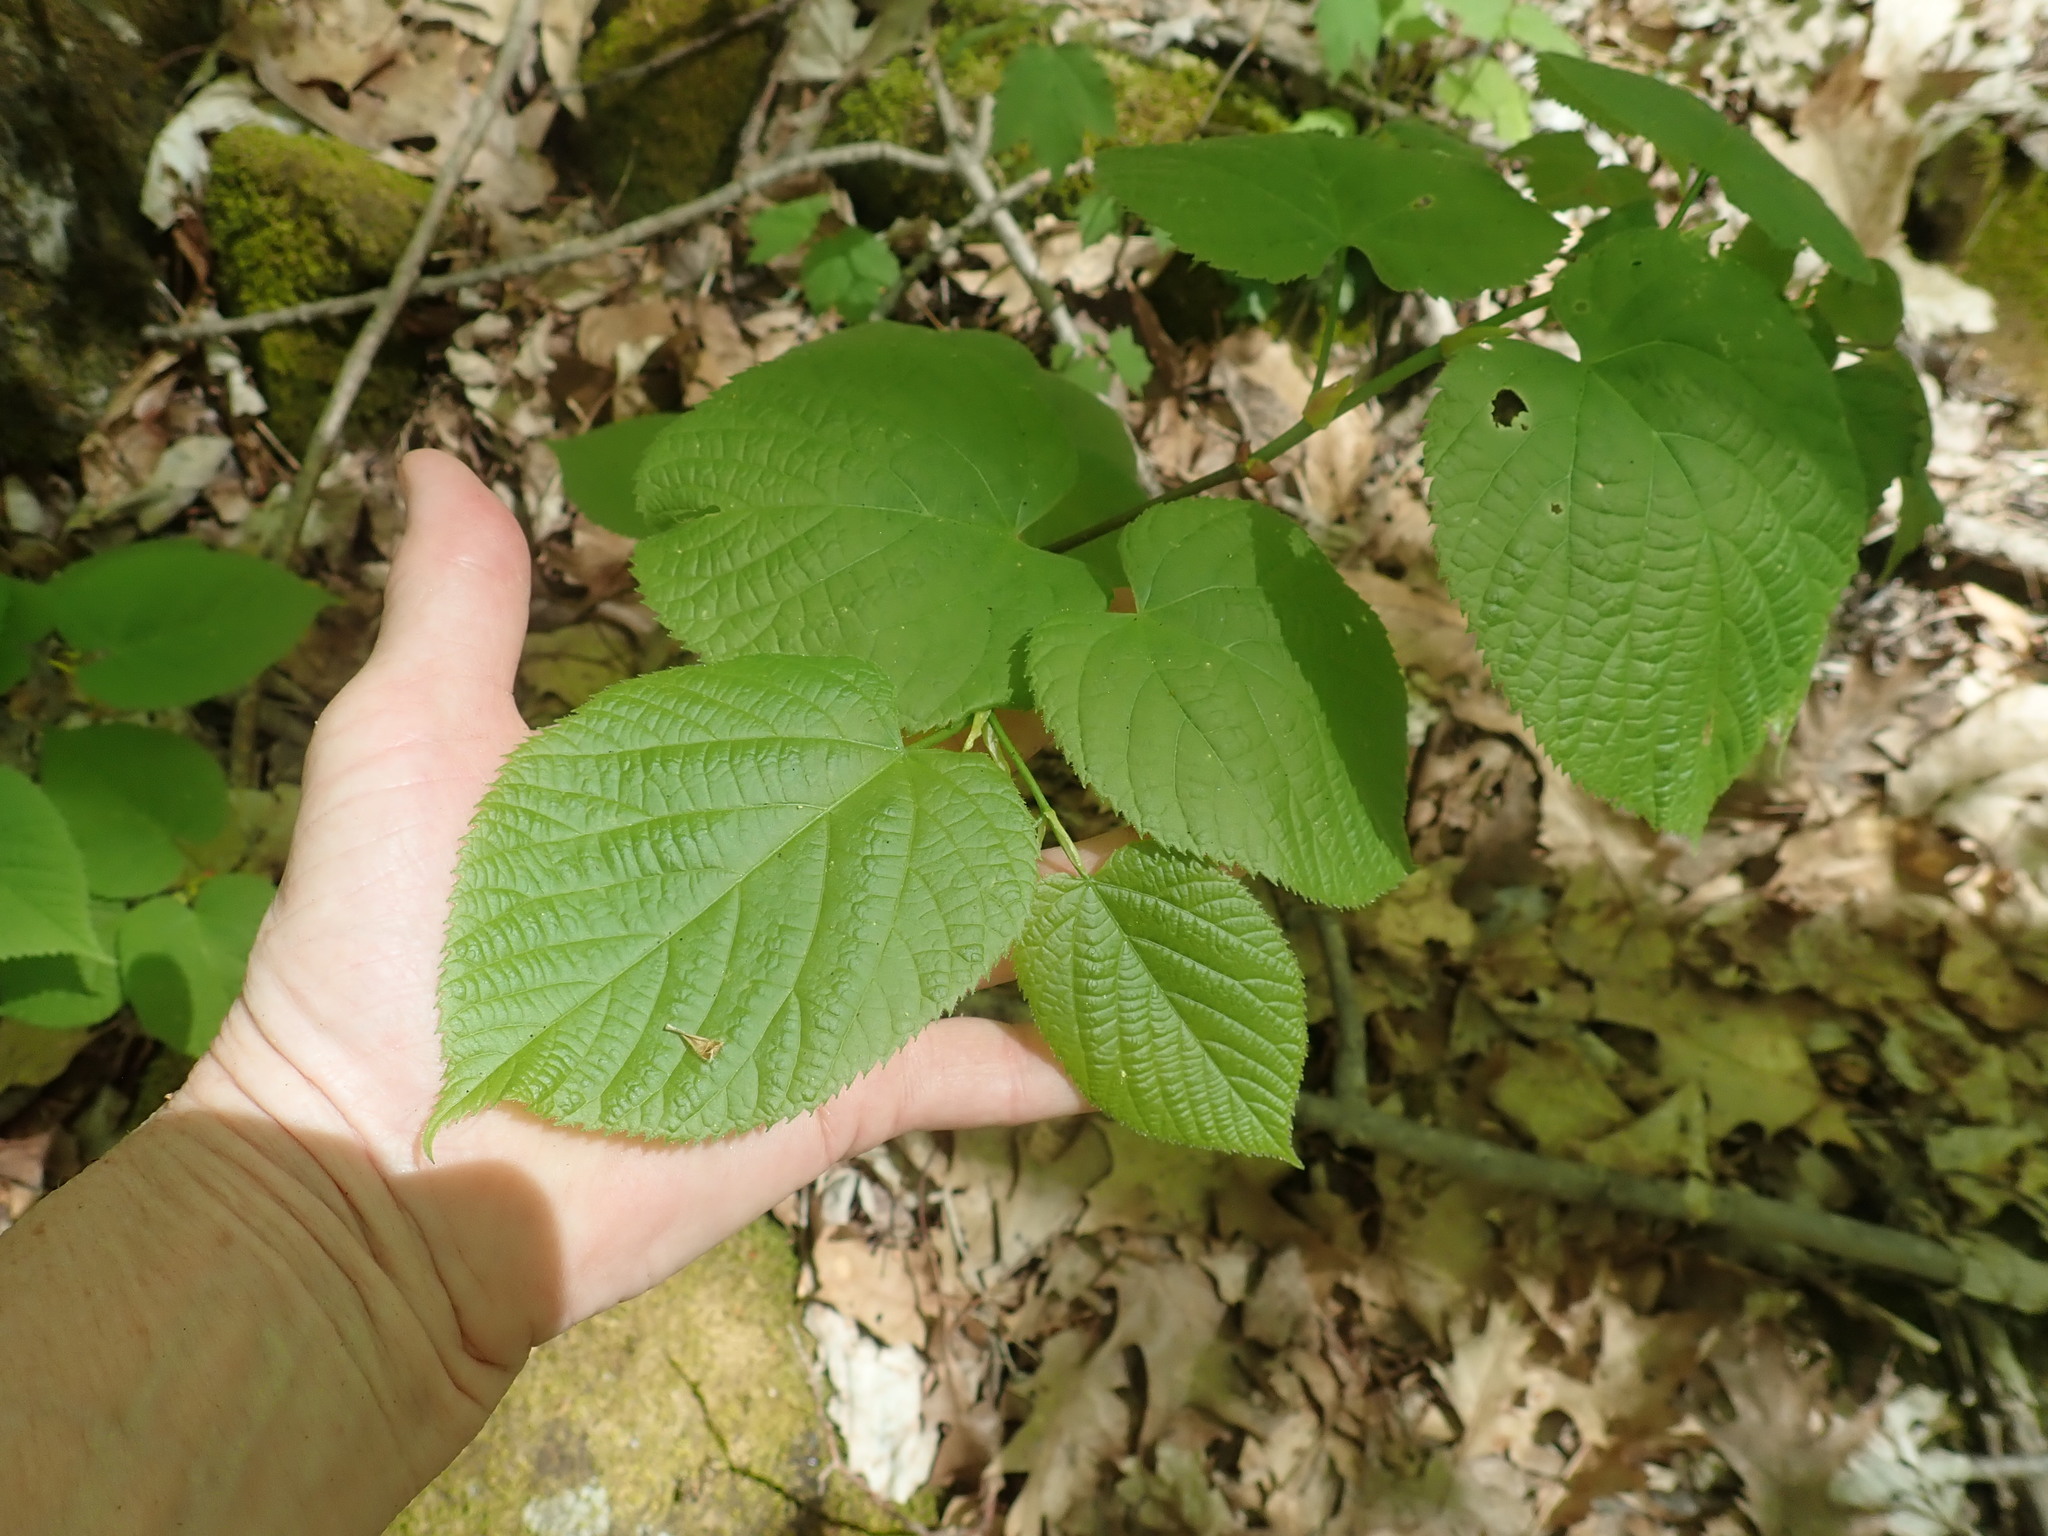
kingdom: Plantae
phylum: Tracheophyta
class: Magnoliopsida
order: Malvales
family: Malvaceae
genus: Tilia
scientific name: Tilia americana
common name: Basswood
